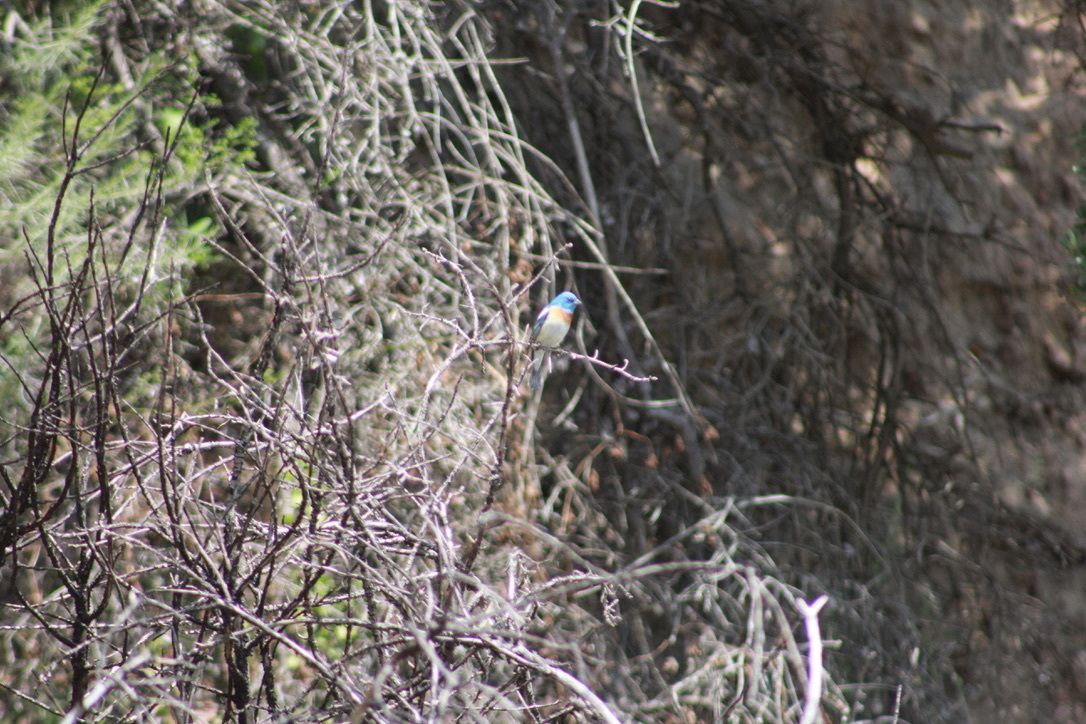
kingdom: Animalia
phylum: Chordata
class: Aves
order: Passeriformes
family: Cardinalidae
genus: Passerina
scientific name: Passerina amoena
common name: Lazuli bunting
